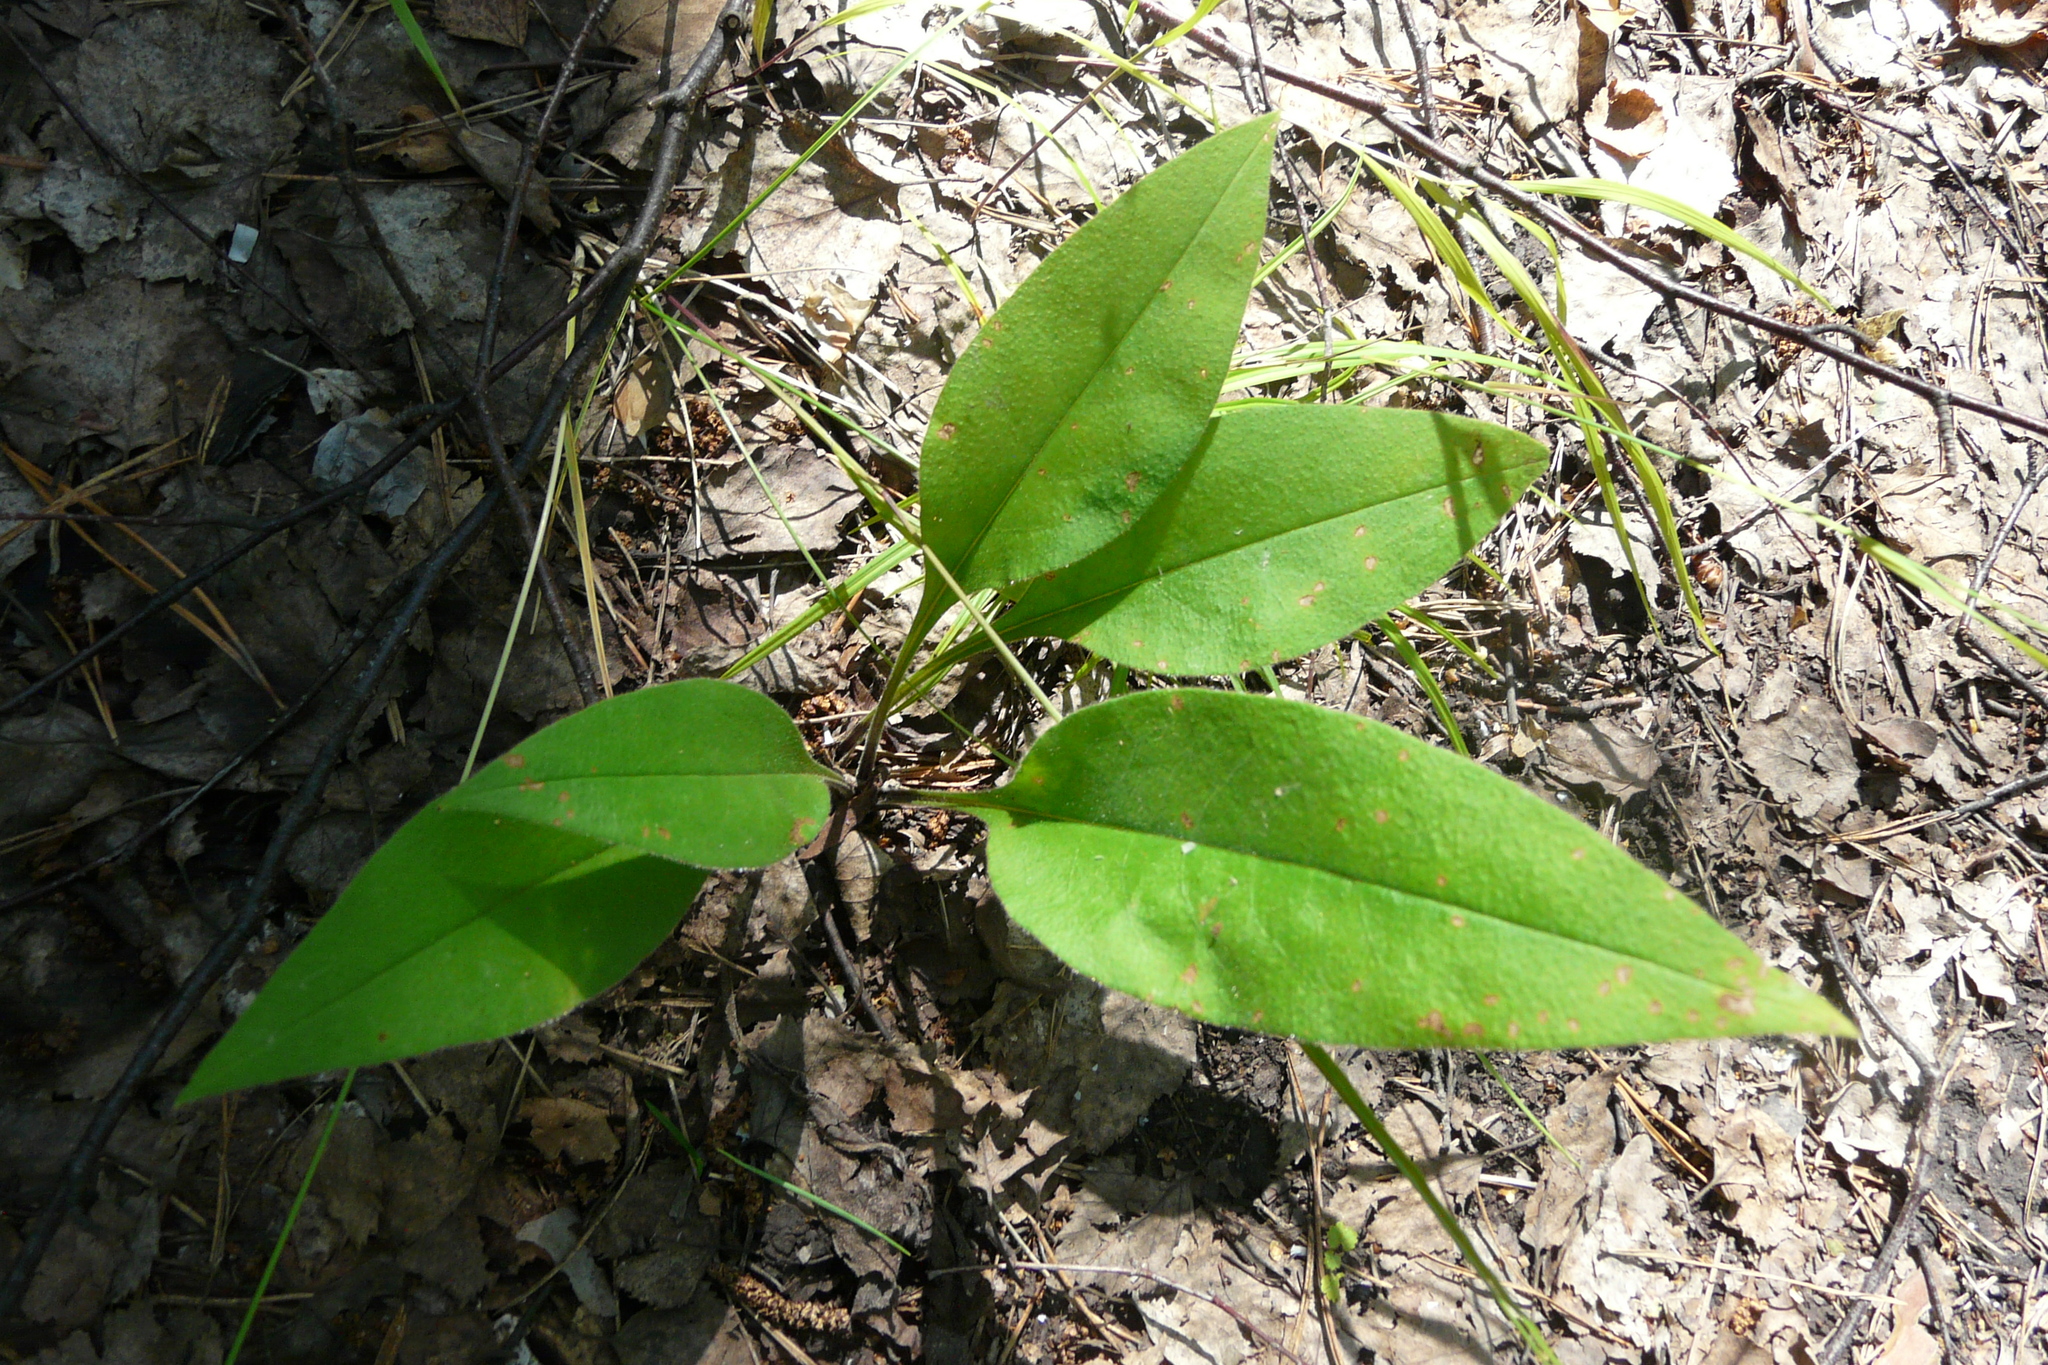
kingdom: Plantae
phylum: Tracheophyta
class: Magnoliopsida
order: Boraginales
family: Boraginaceae
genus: Pulmonaria
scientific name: Pulmonaria angustifolia
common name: Blue cowslip
